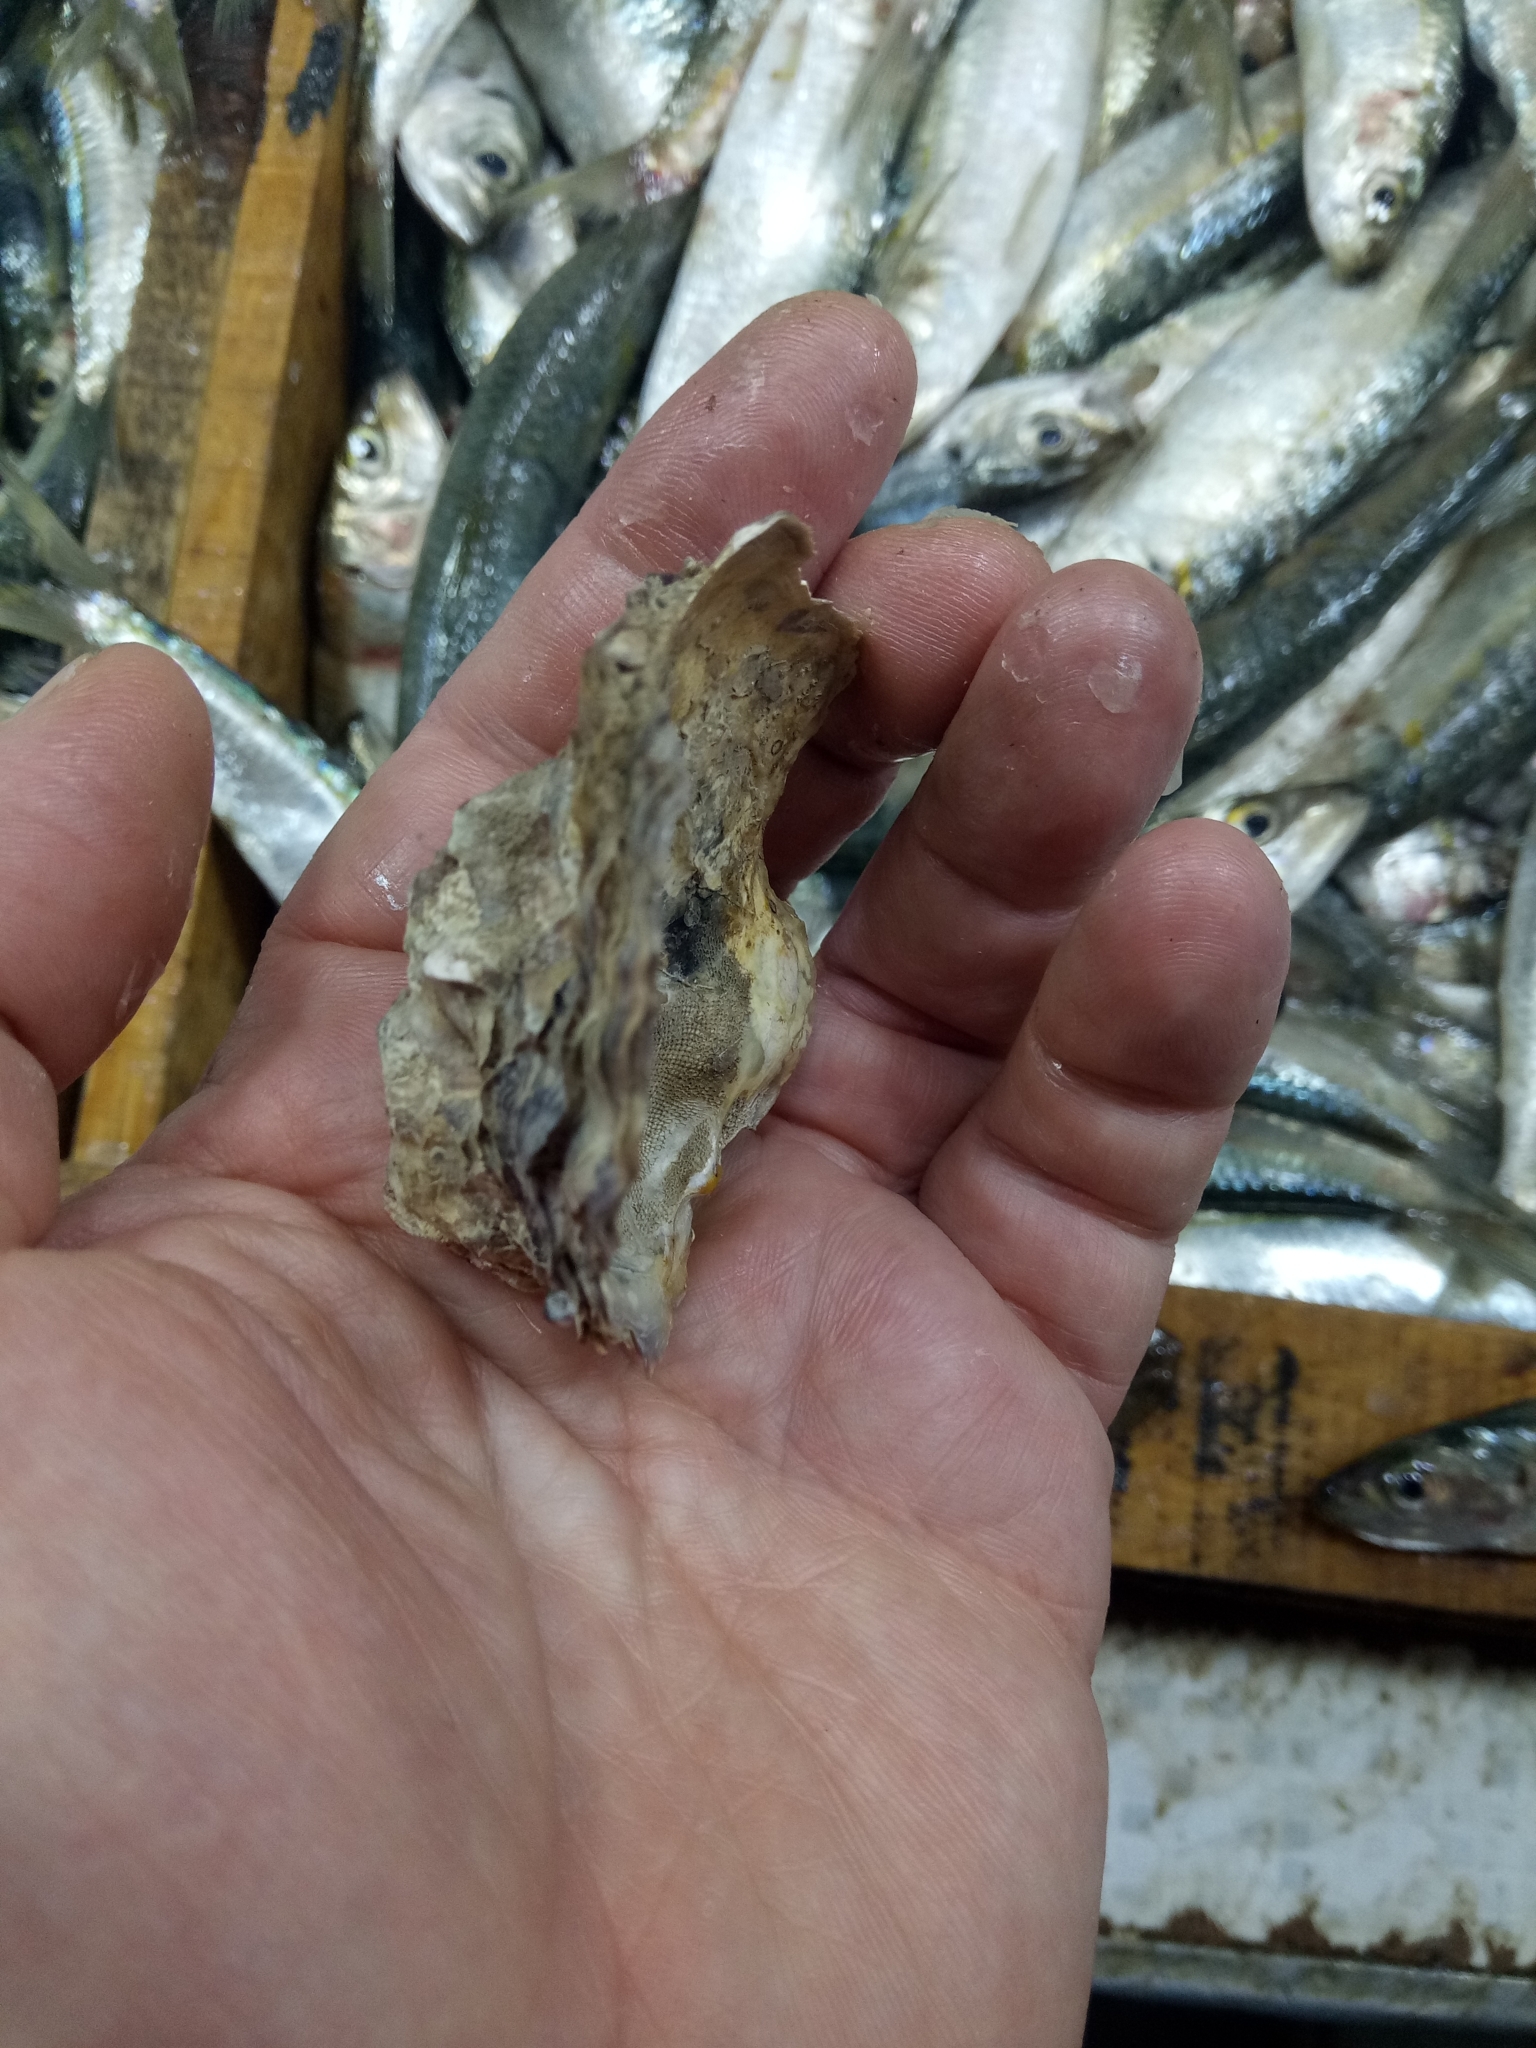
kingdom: Animalia
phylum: Mollusca
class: Bivalvia
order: Ostreida
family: Ostreidae
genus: Magallana
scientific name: Magallana gigas
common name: Pacific oyster
